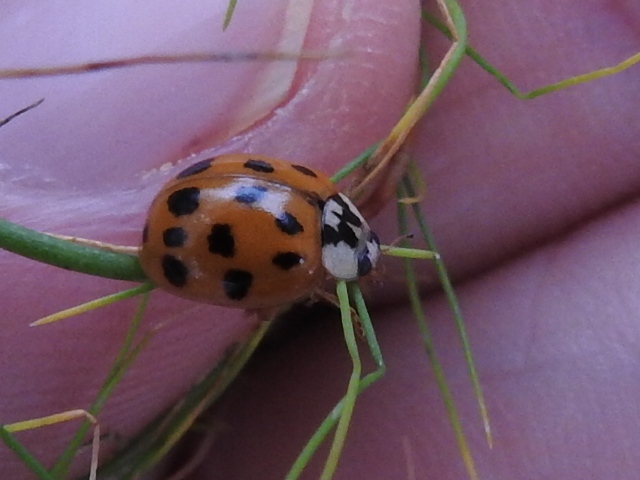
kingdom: Animalia
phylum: Arthropoda
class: Insecta
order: Coleoptera
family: Coccinellidae
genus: Harmonia
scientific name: Harmonia axyridis
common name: Harlequin ladybird
